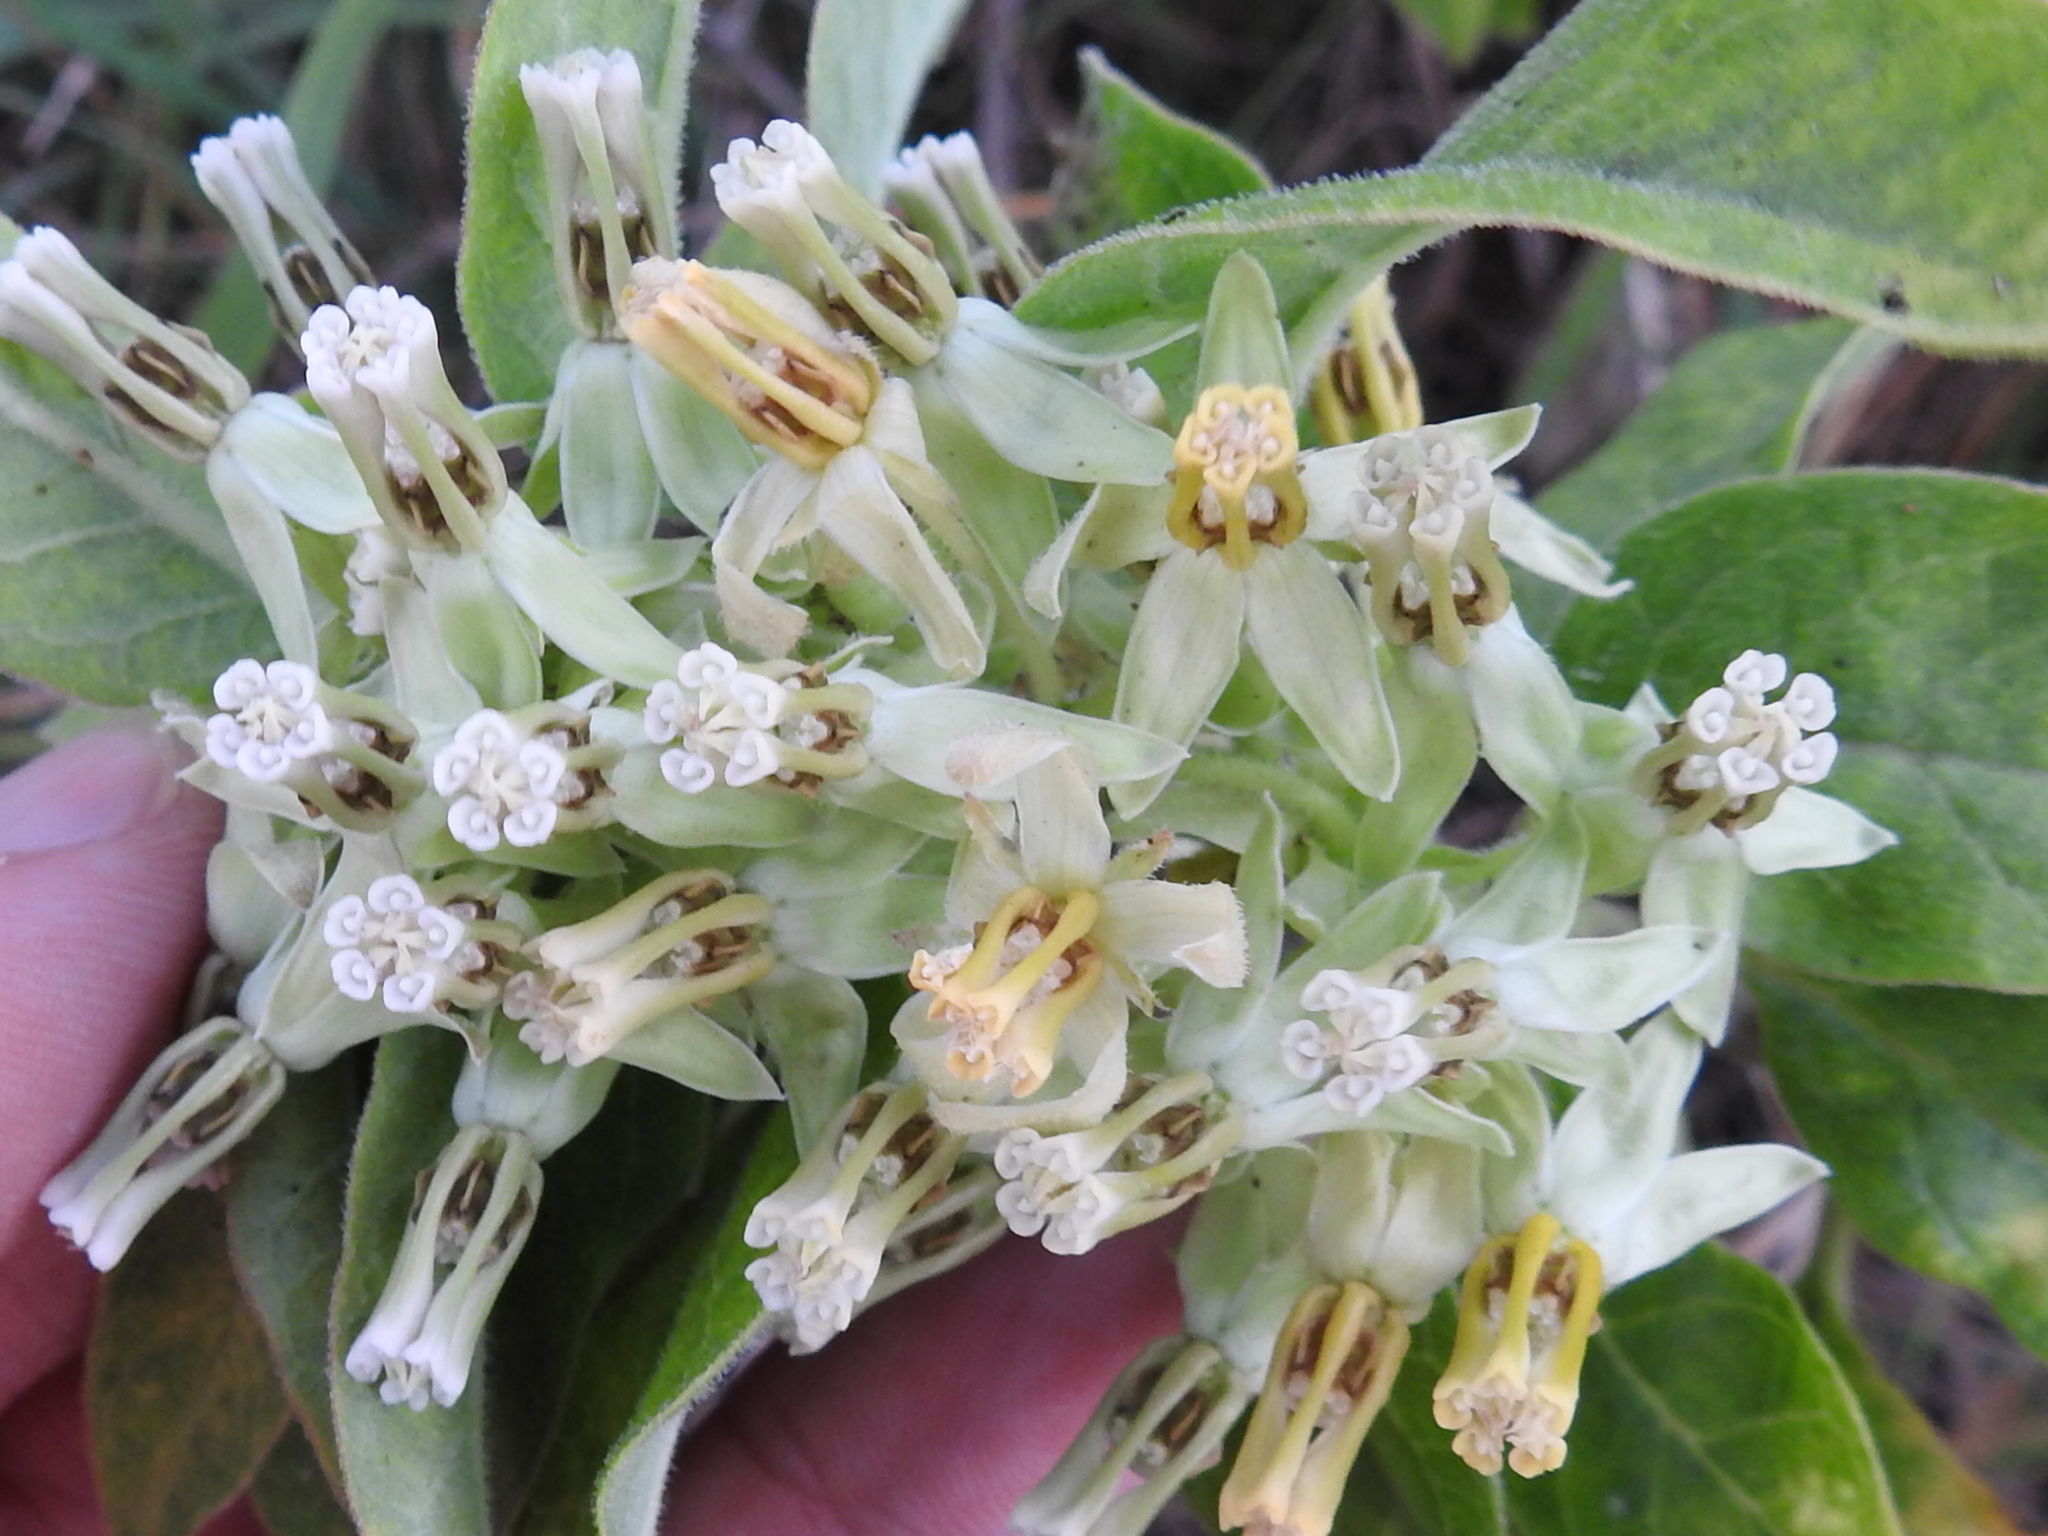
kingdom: Plantae
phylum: Tracheophyta
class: Magnoliopsida
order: Gentianales
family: Apocynaceae
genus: Asclepias
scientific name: Asclepias oenotheroides
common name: Zizotes milkweed
